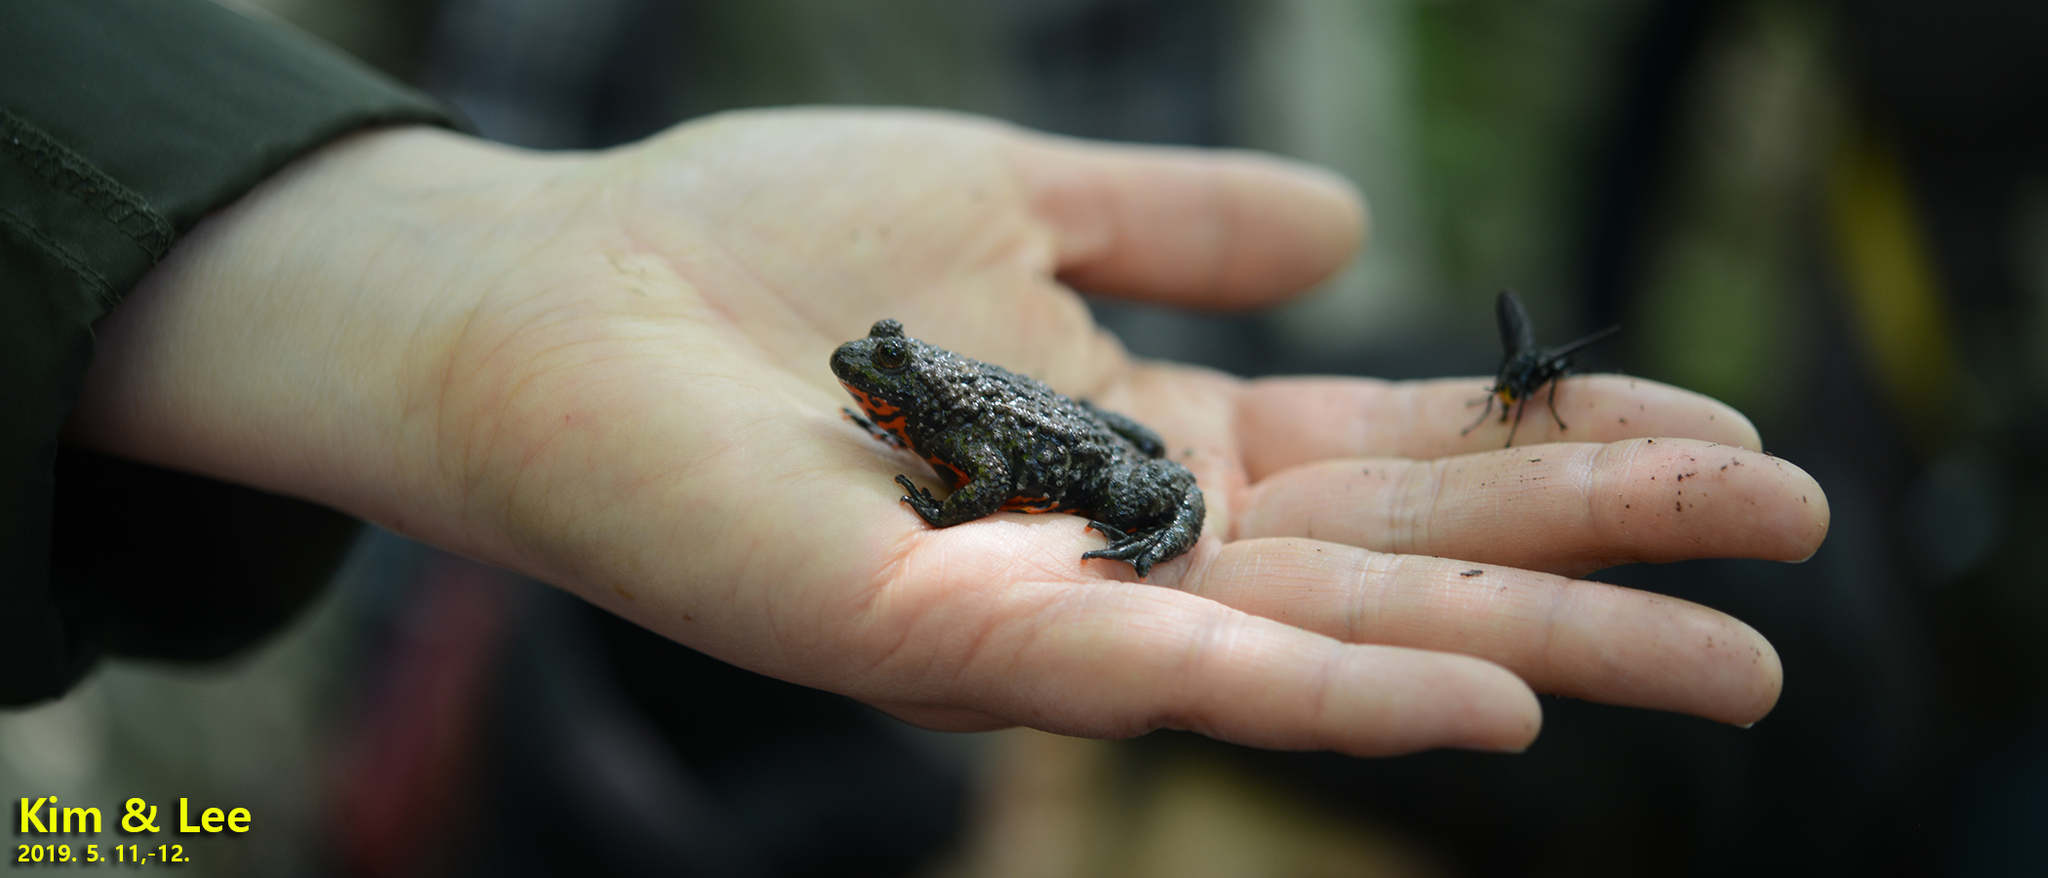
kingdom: Animalia
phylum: Chordata
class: Amphibia
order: Anura
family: Bombinatoridae
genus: Bombina
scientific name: Bombina orientalis
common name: Oriental firebelly toad
